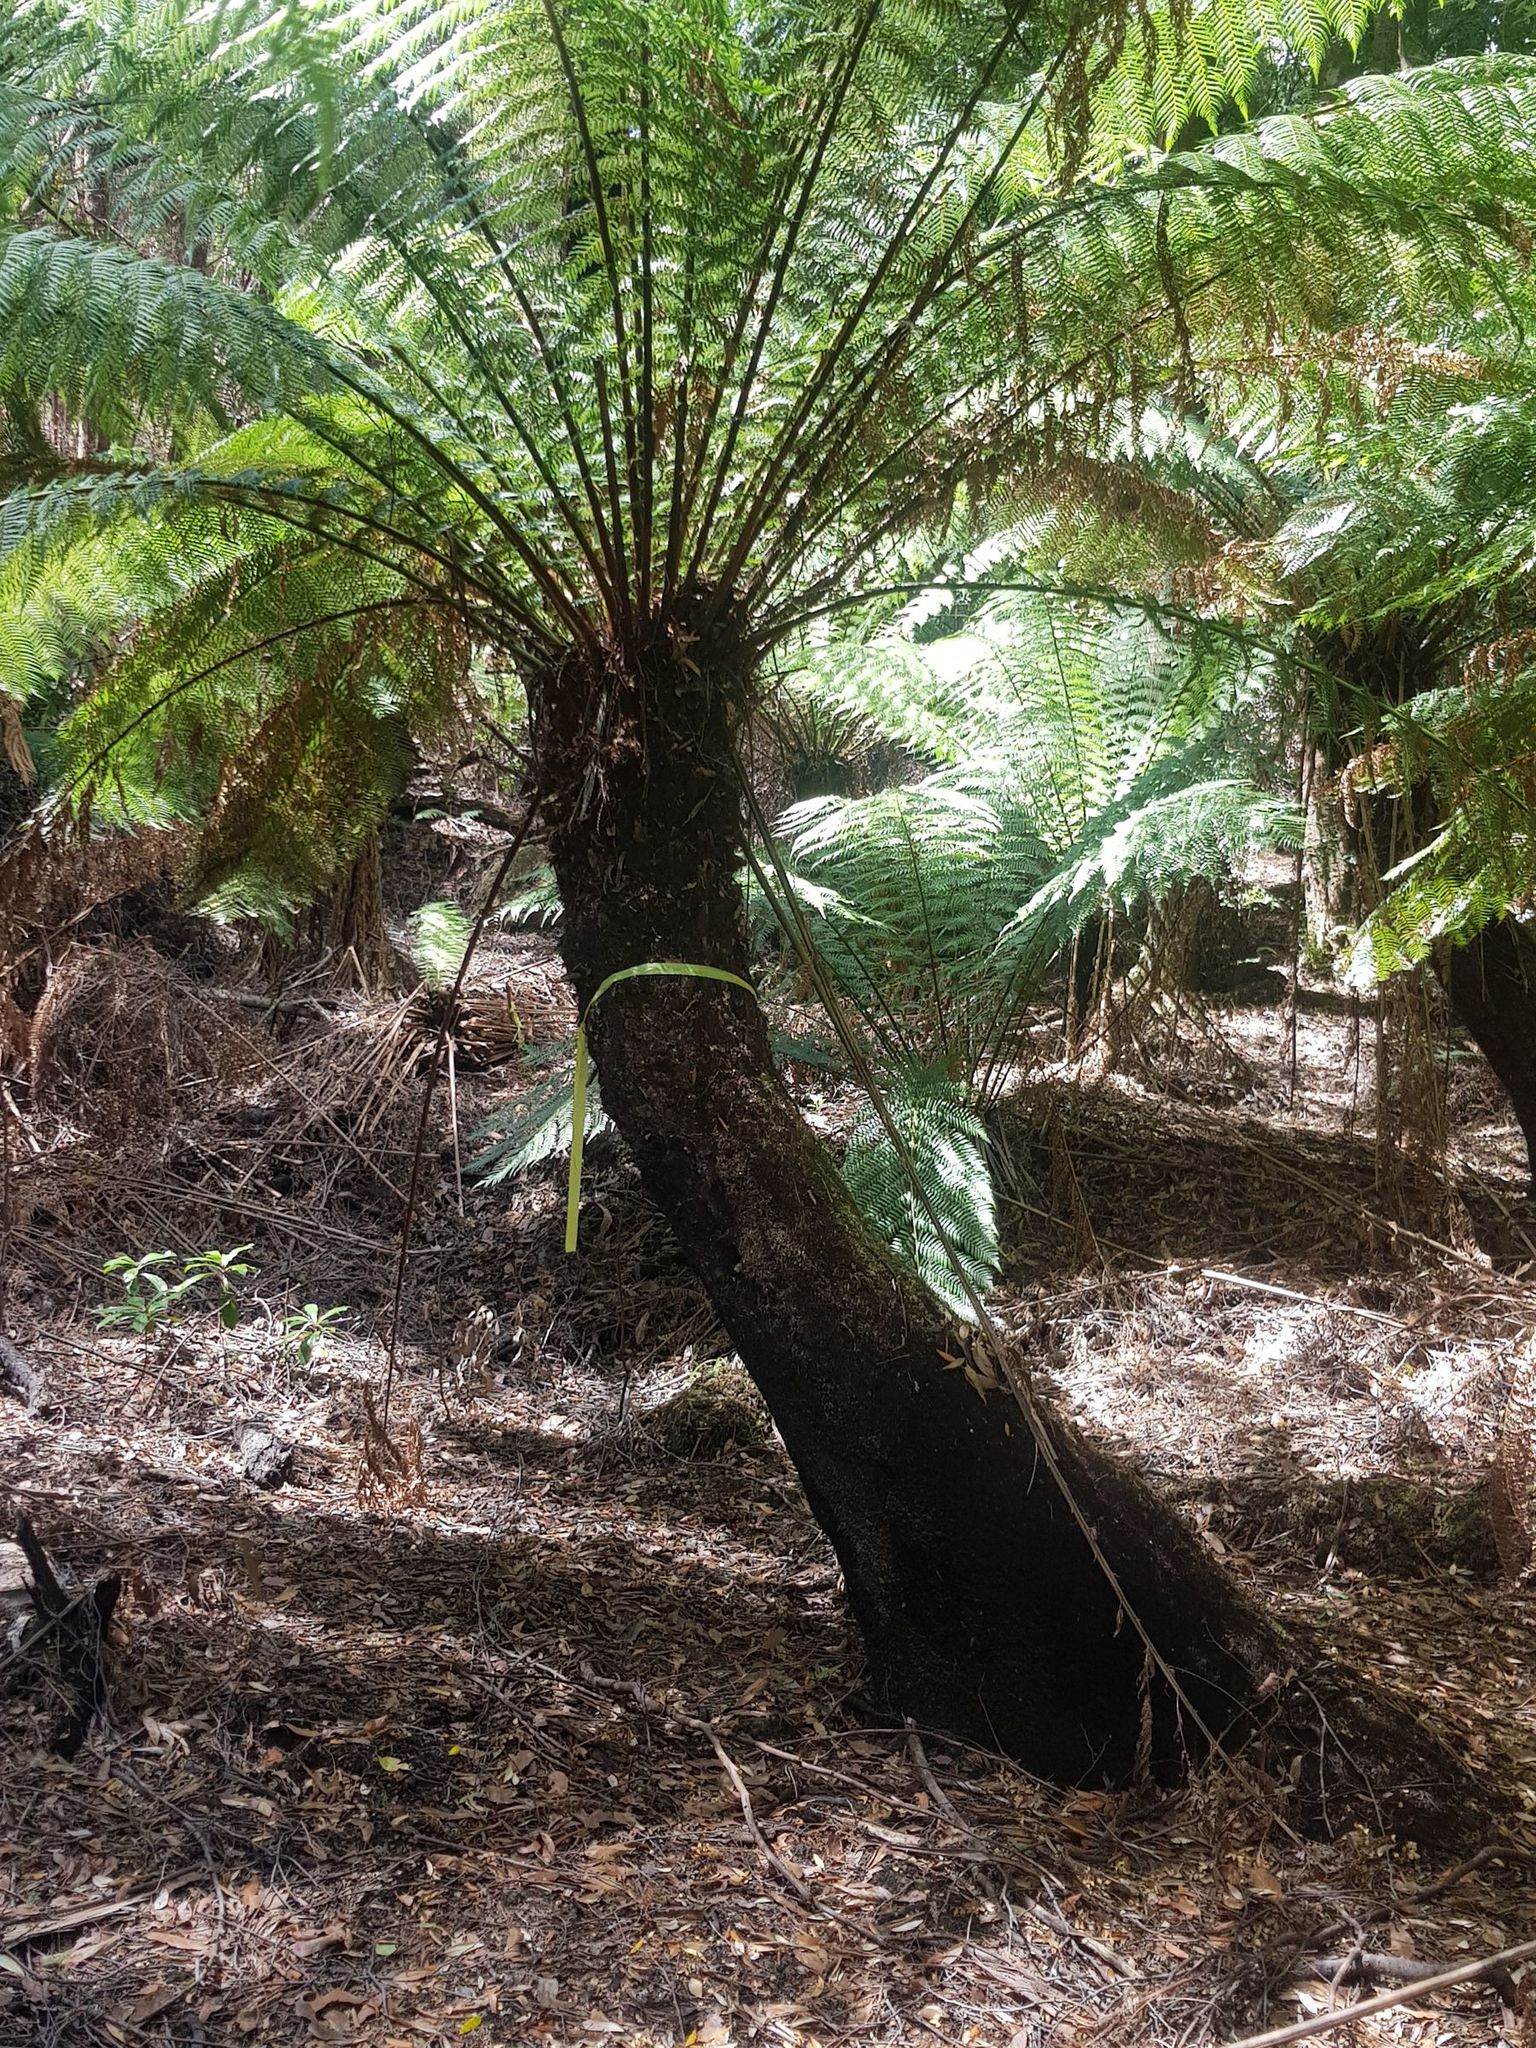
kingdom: Plantae
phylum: Tracheophyta
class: Polypodiopsida
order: Cyatheales
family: Dicksoniaceae
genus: Dicksonia
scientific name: Dicksonia antarctica
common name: Australian treefern
